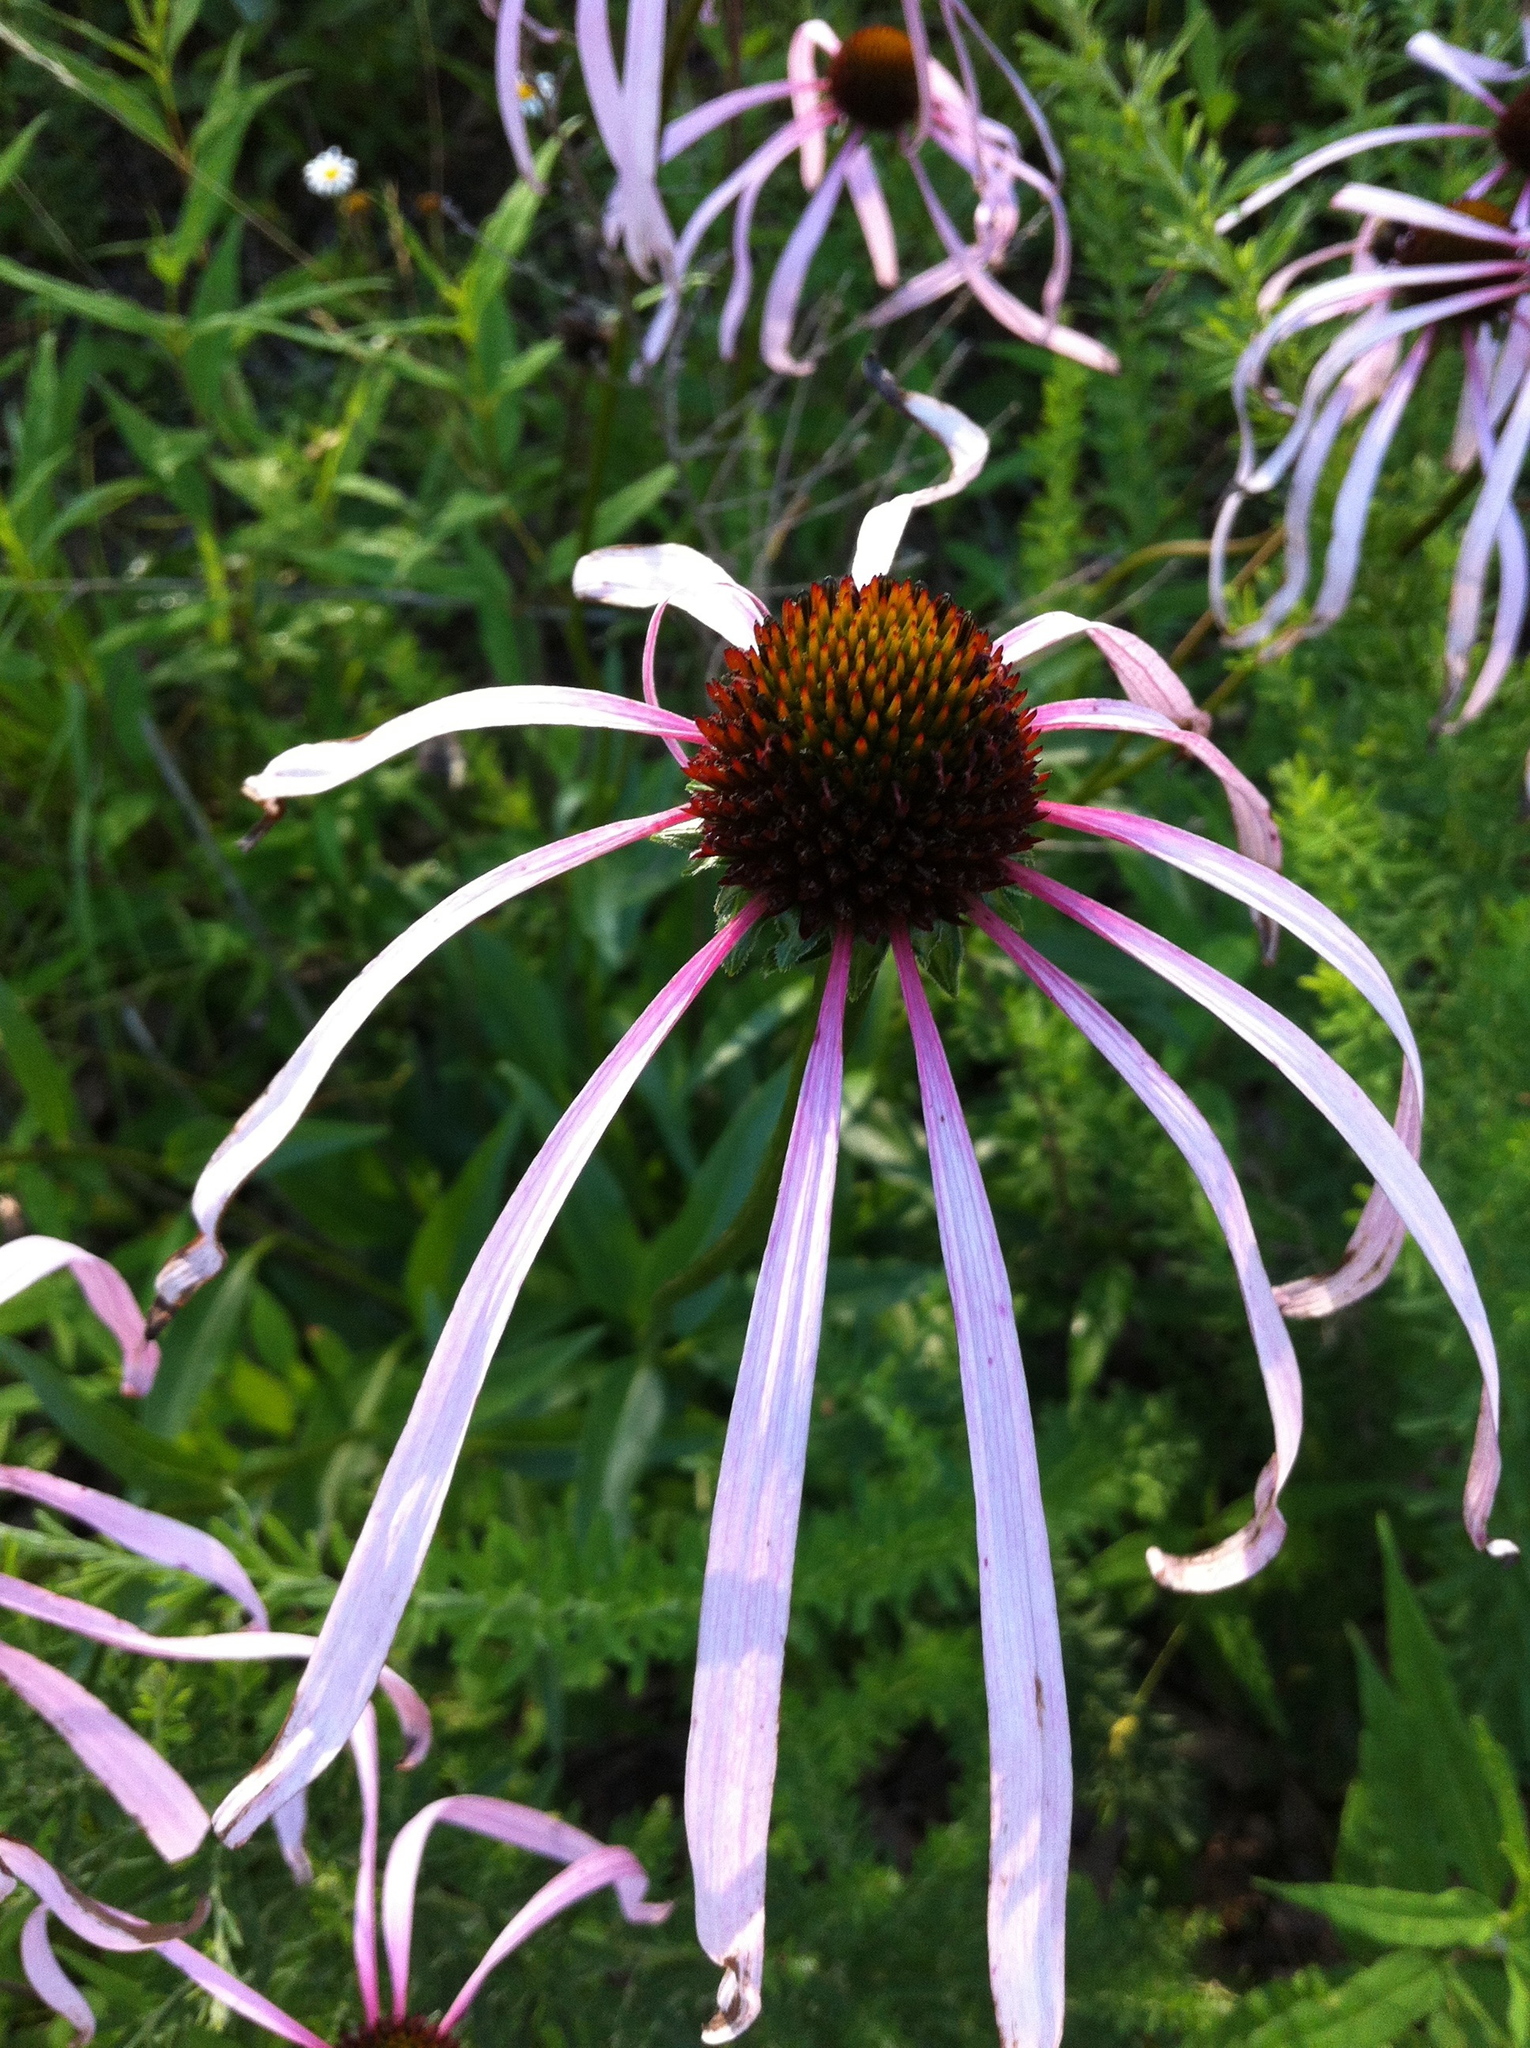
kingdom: Plantae
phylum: Tracheophyta
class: Magnoliopsida
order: Asterales
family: Asteraceae
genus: Echinacea
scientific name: Echinacea laevigata
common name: Smooth coneflower
